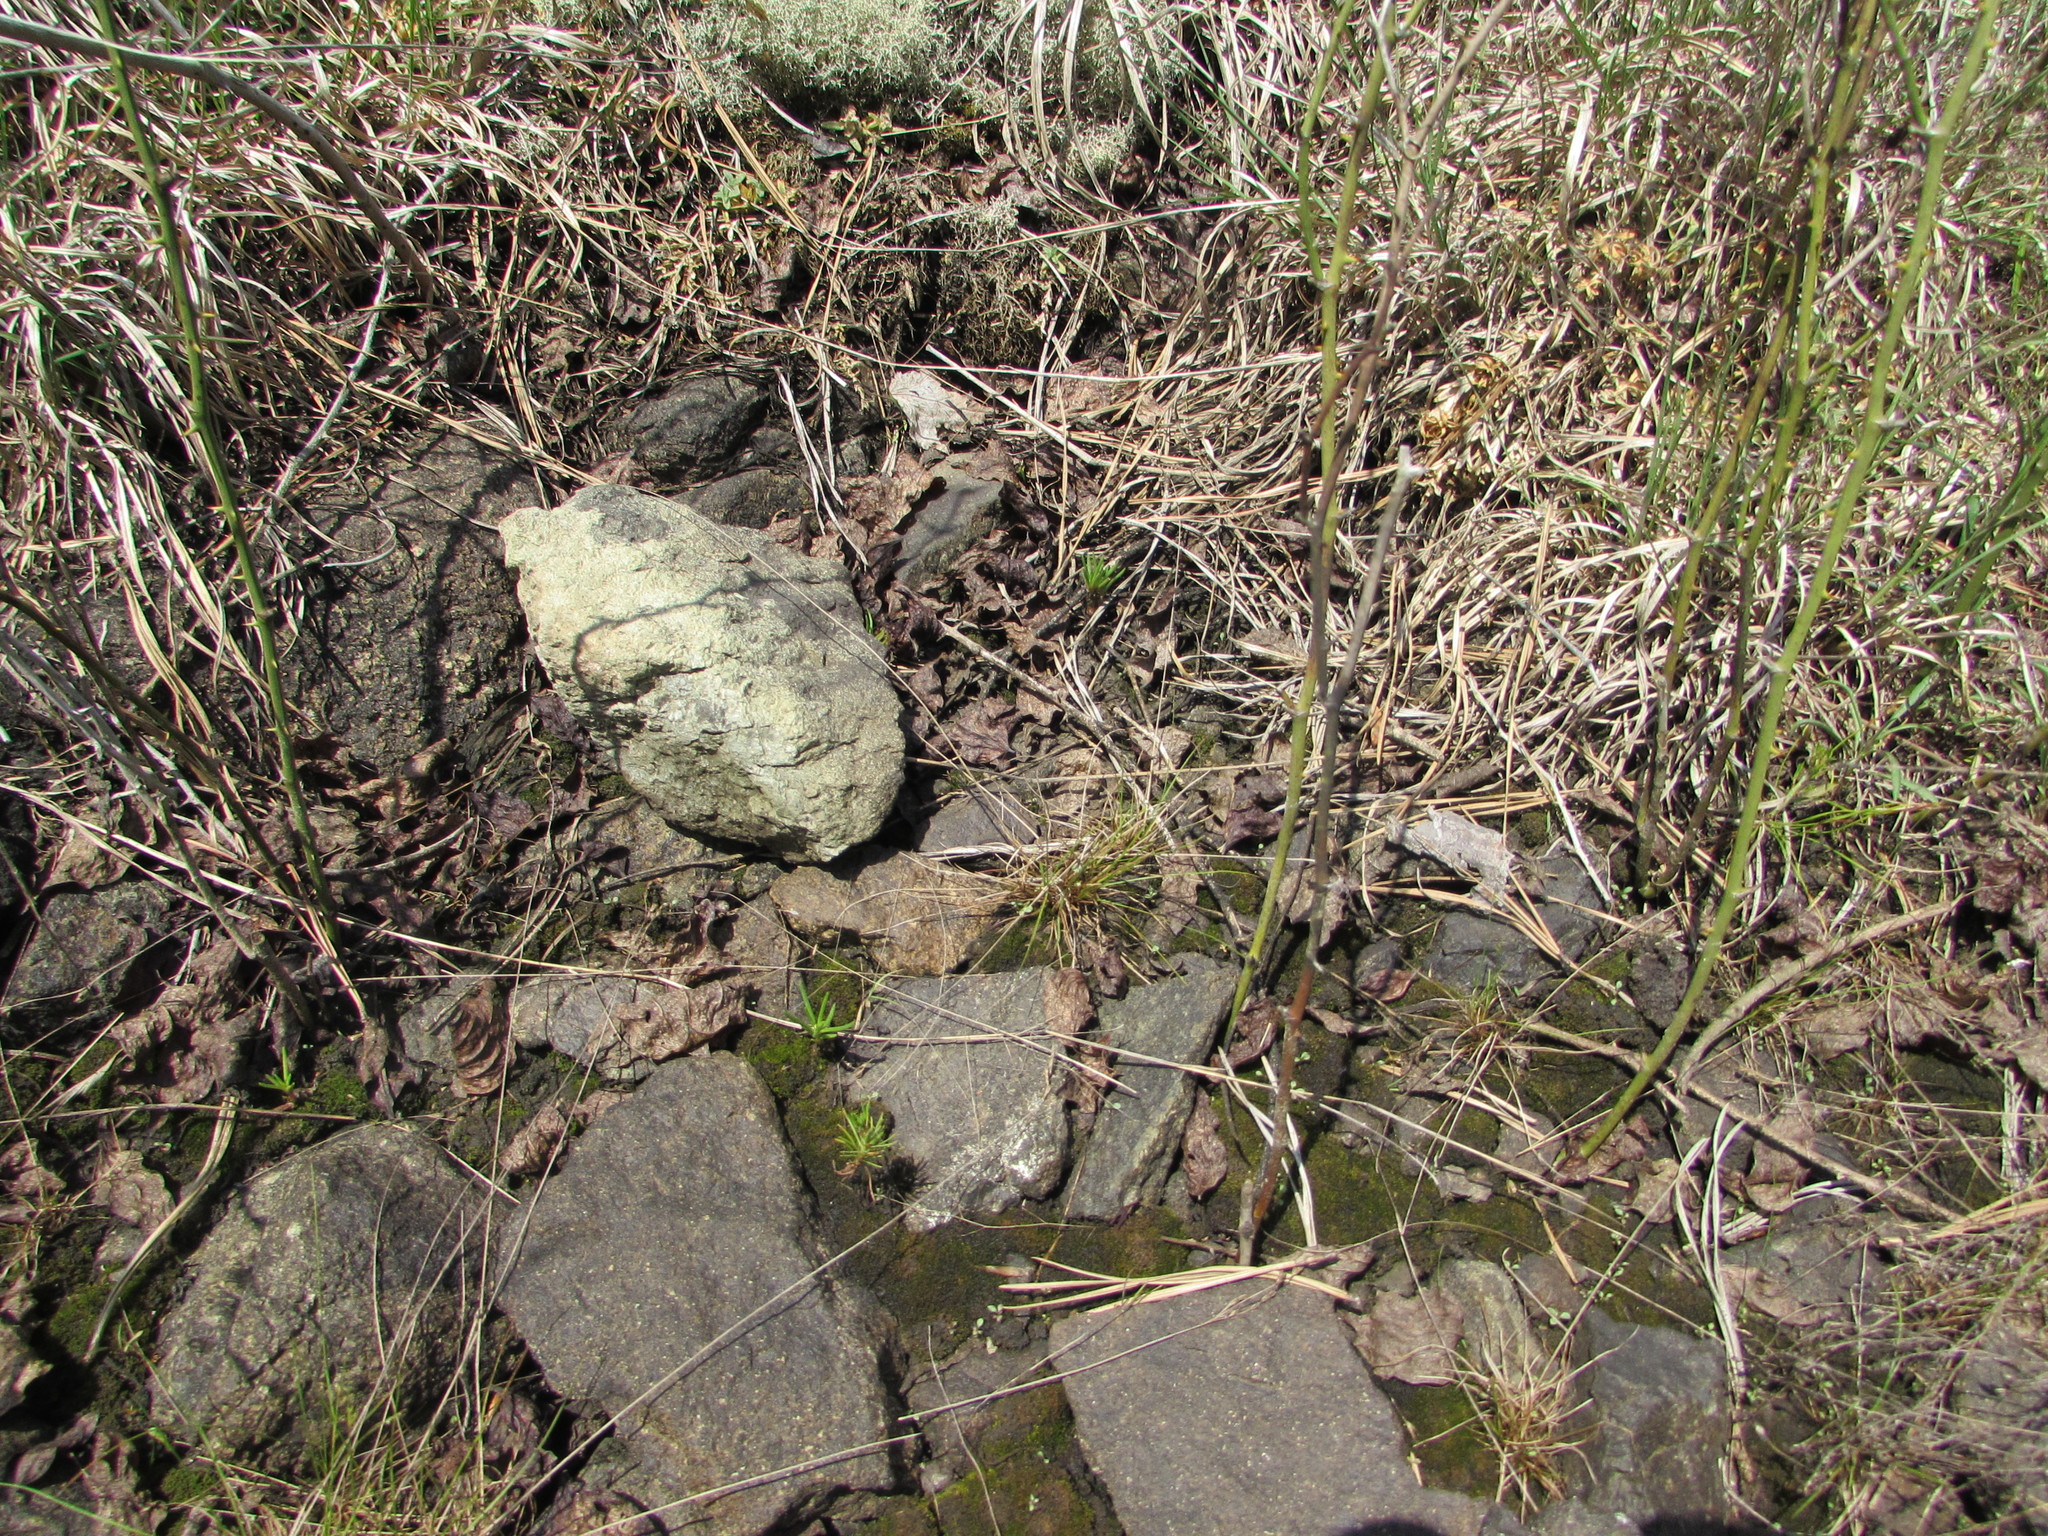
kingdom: Plantae
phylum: Tracheophyta
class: Magnoliopsida
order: Caryophyllales
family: Montiaceae
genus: Phemeranthus
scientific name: Phemeranthus teretifolius
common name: Quill fameflower
